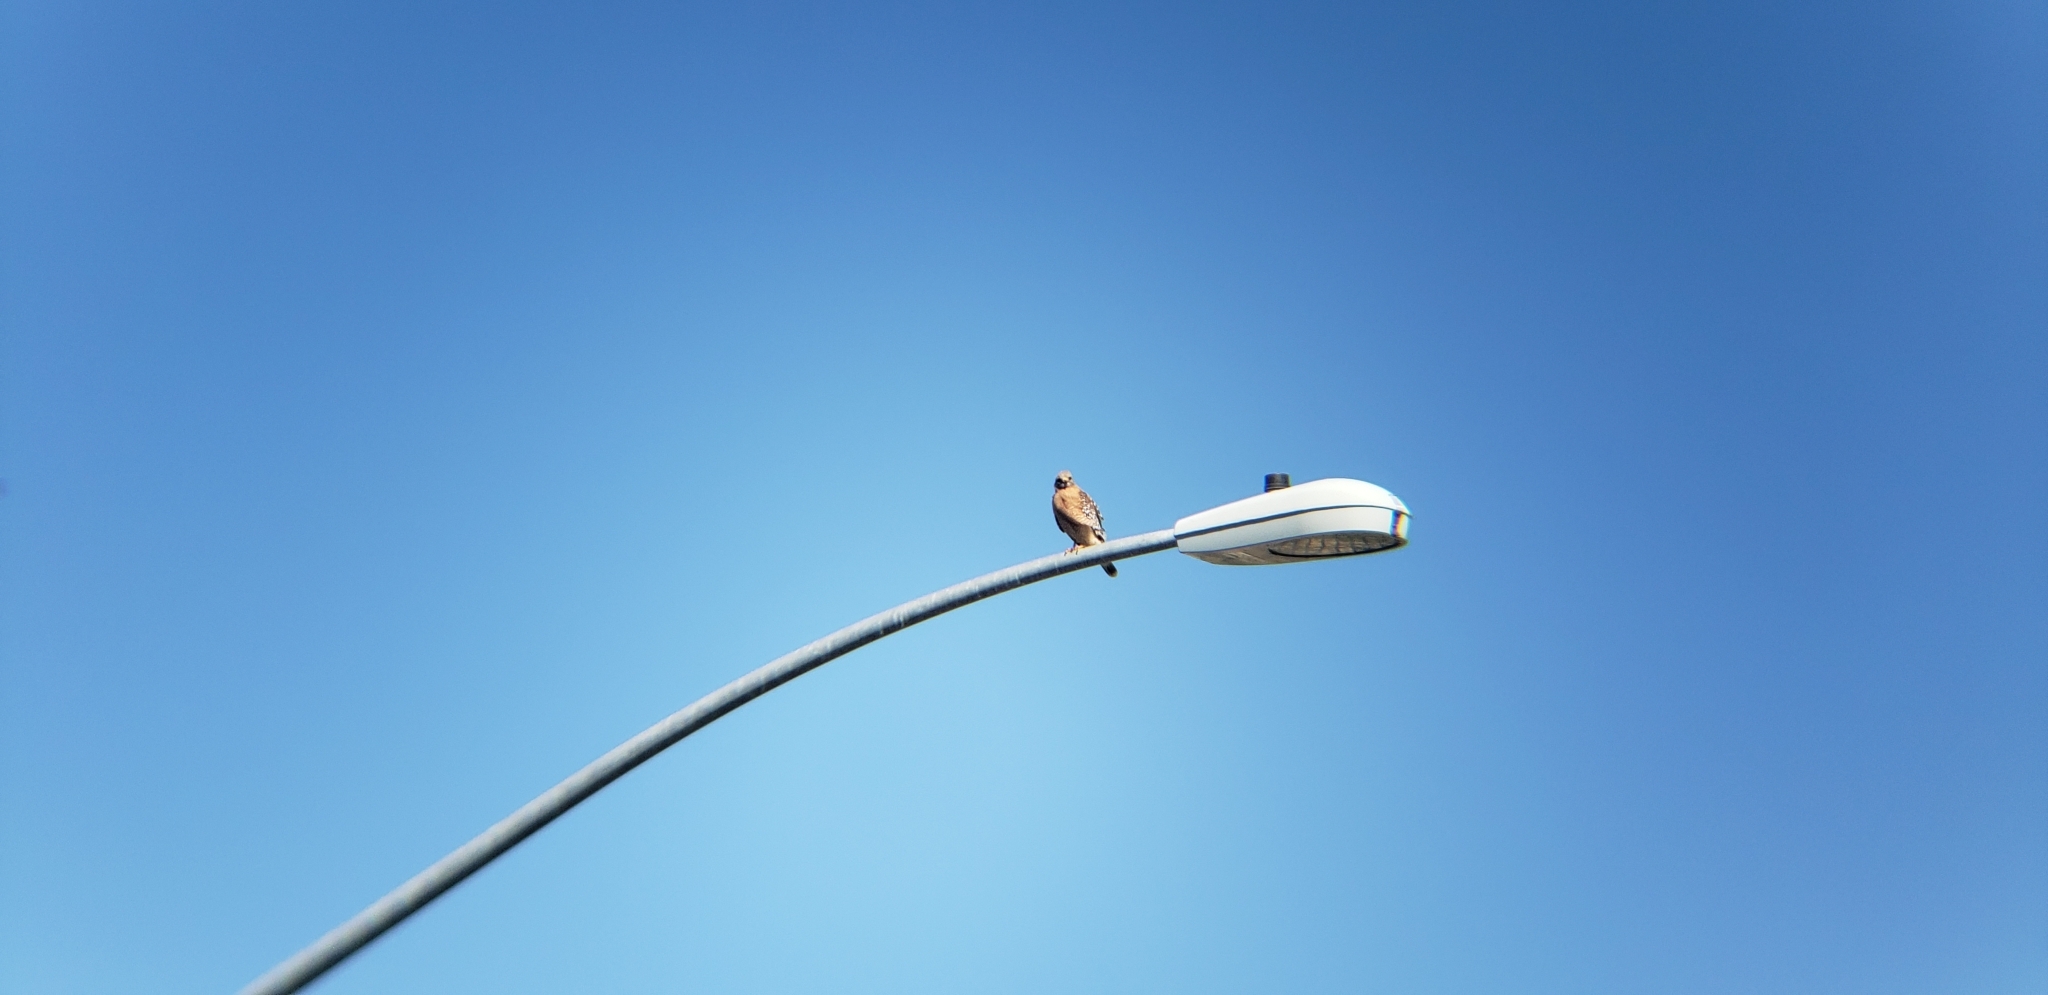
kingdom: Animalia
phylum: Chordata
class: Aves
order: Accipitriformes
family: Accipitridae
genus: Buteo
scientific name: Buteo lineatus
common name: Red-shouldered hawk
